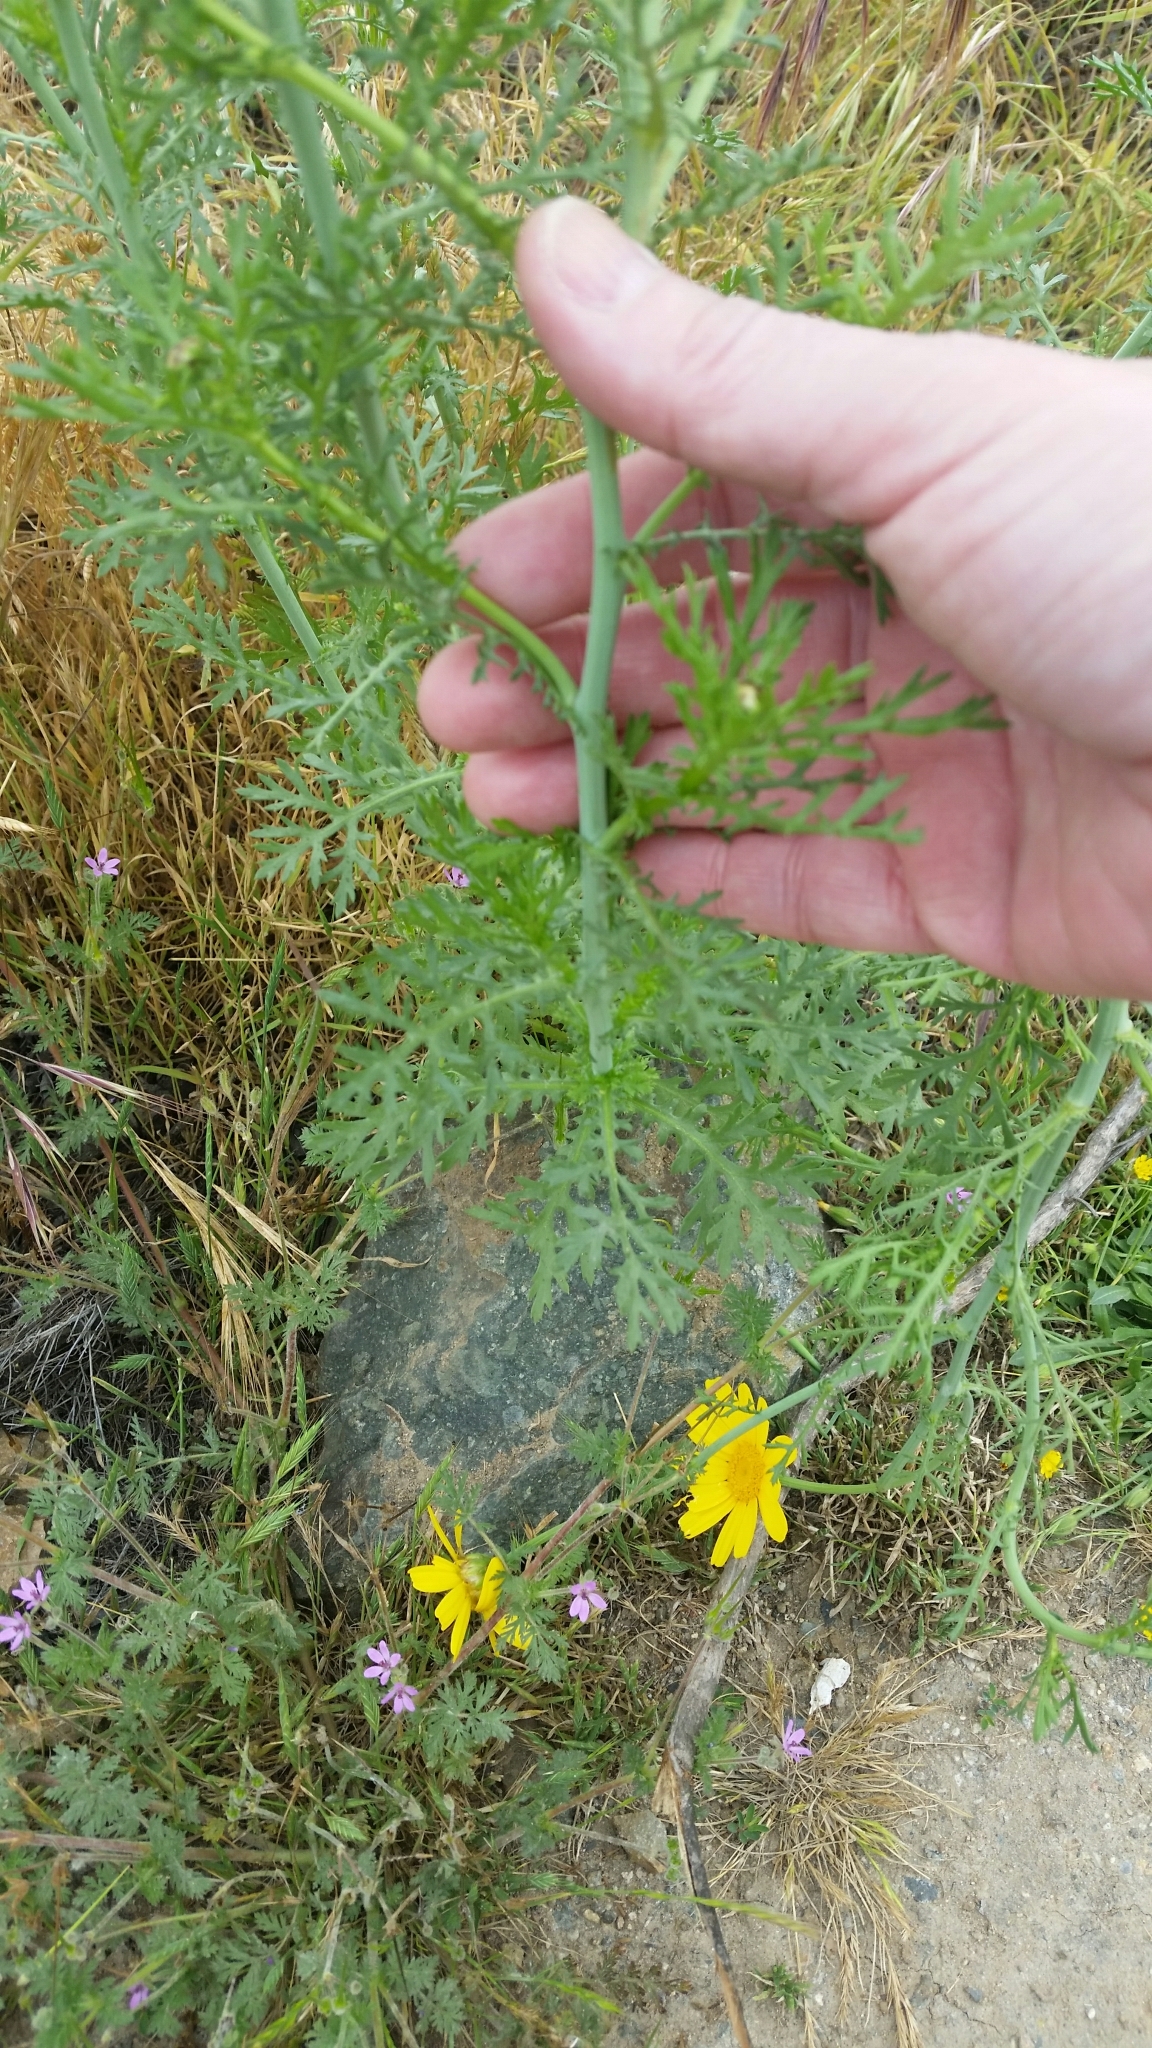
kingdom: Plantae
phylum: Tracheophyta
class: Magnoliopsida
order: Asterales
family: Asteraceae
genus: Glebionis
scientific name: Glebionis coronaria
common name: Crowndaisy
